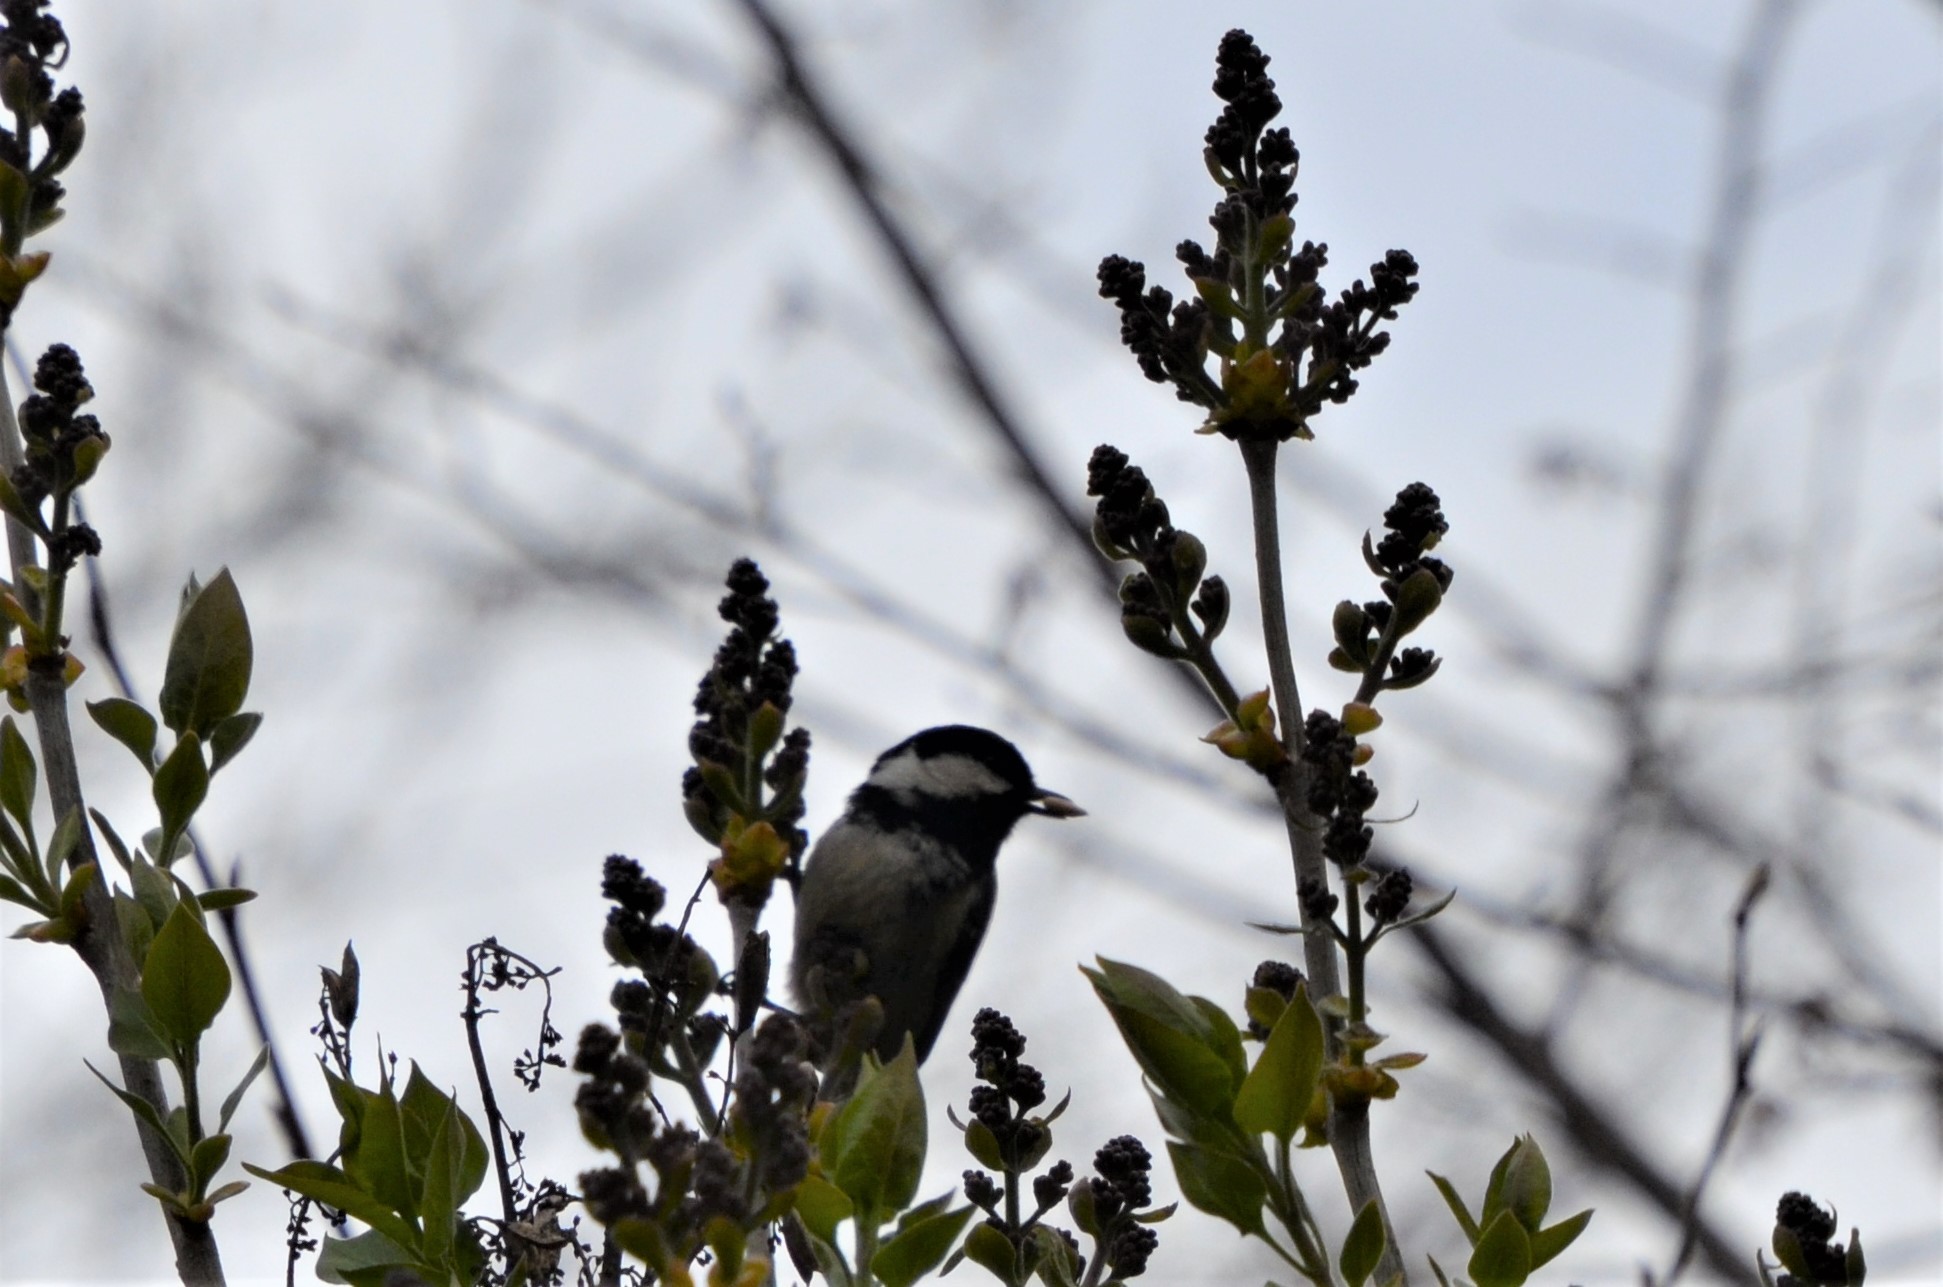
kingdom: Animalia
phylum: Chordata
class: Aves
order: Passeriformes
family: Paridae
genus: Periparus
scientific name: Periparus ater
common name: Coal tit
